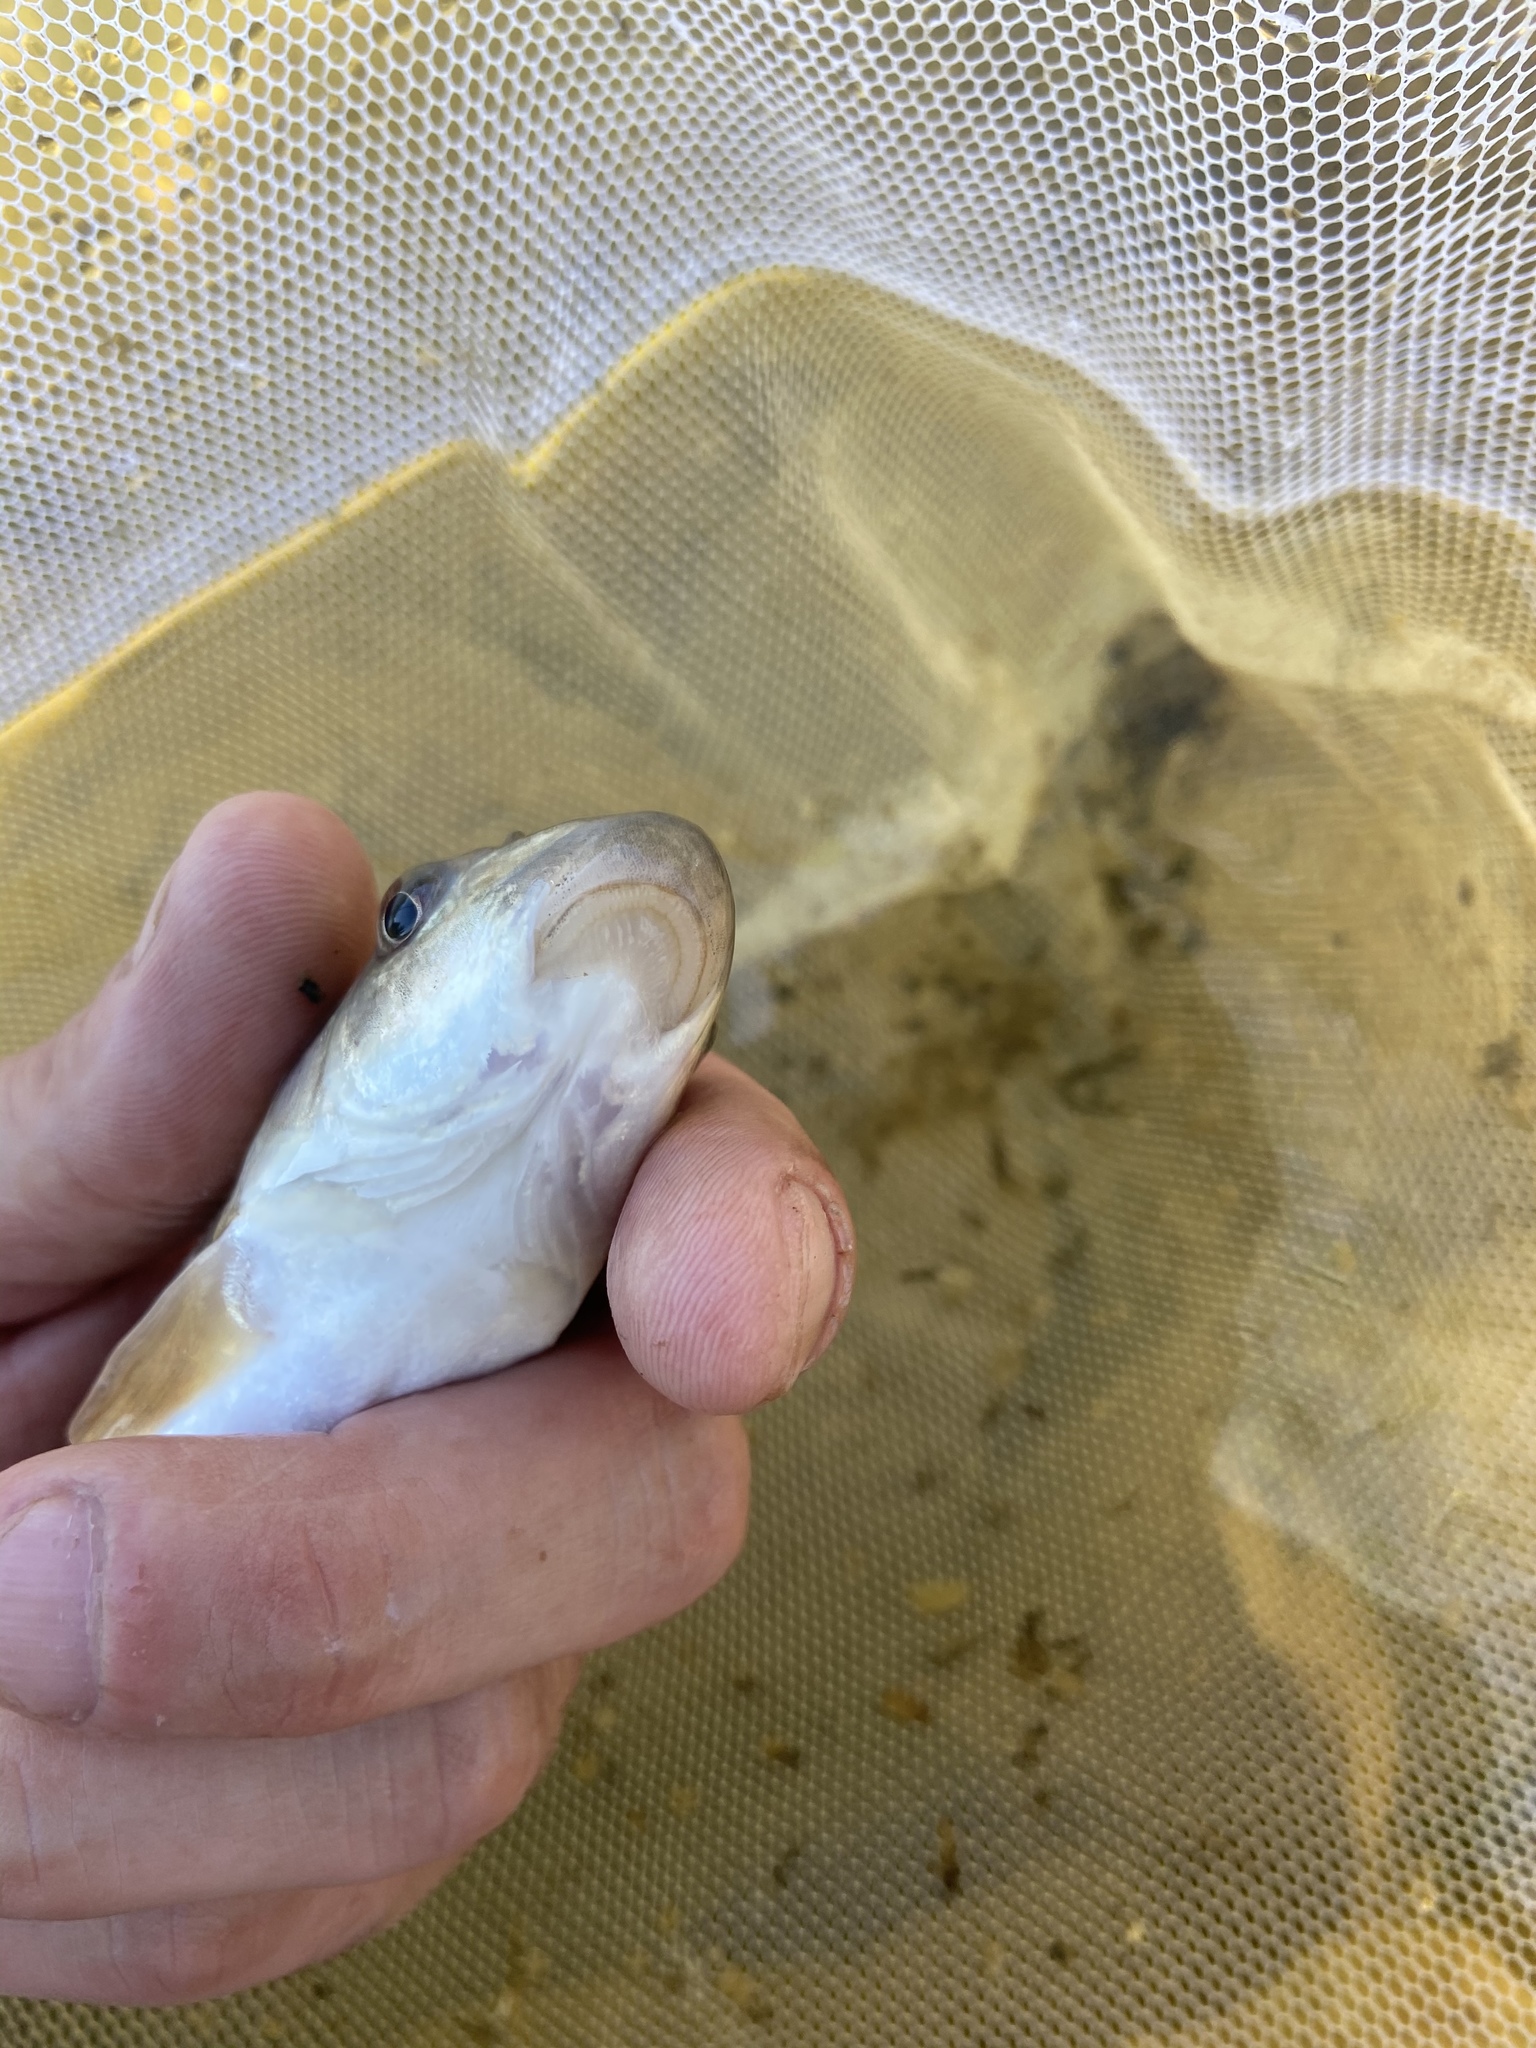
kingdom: Animalia
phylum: Chordata
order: Cypriniformes
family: Catostomidae
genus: Catostomus
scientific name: Catostomus commersonii
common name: White sucker
